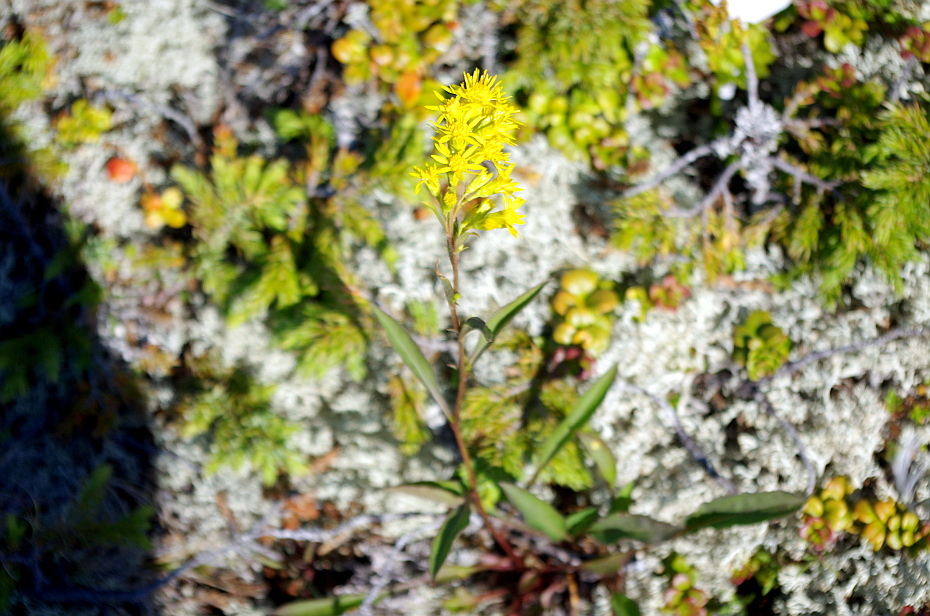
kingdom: Plantae
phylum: Tracheophyta
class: Magnoliopsida
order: Asterales
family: Asteraceae
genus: Solidago
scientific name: Solidago virgaurea
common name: Goldenrod
